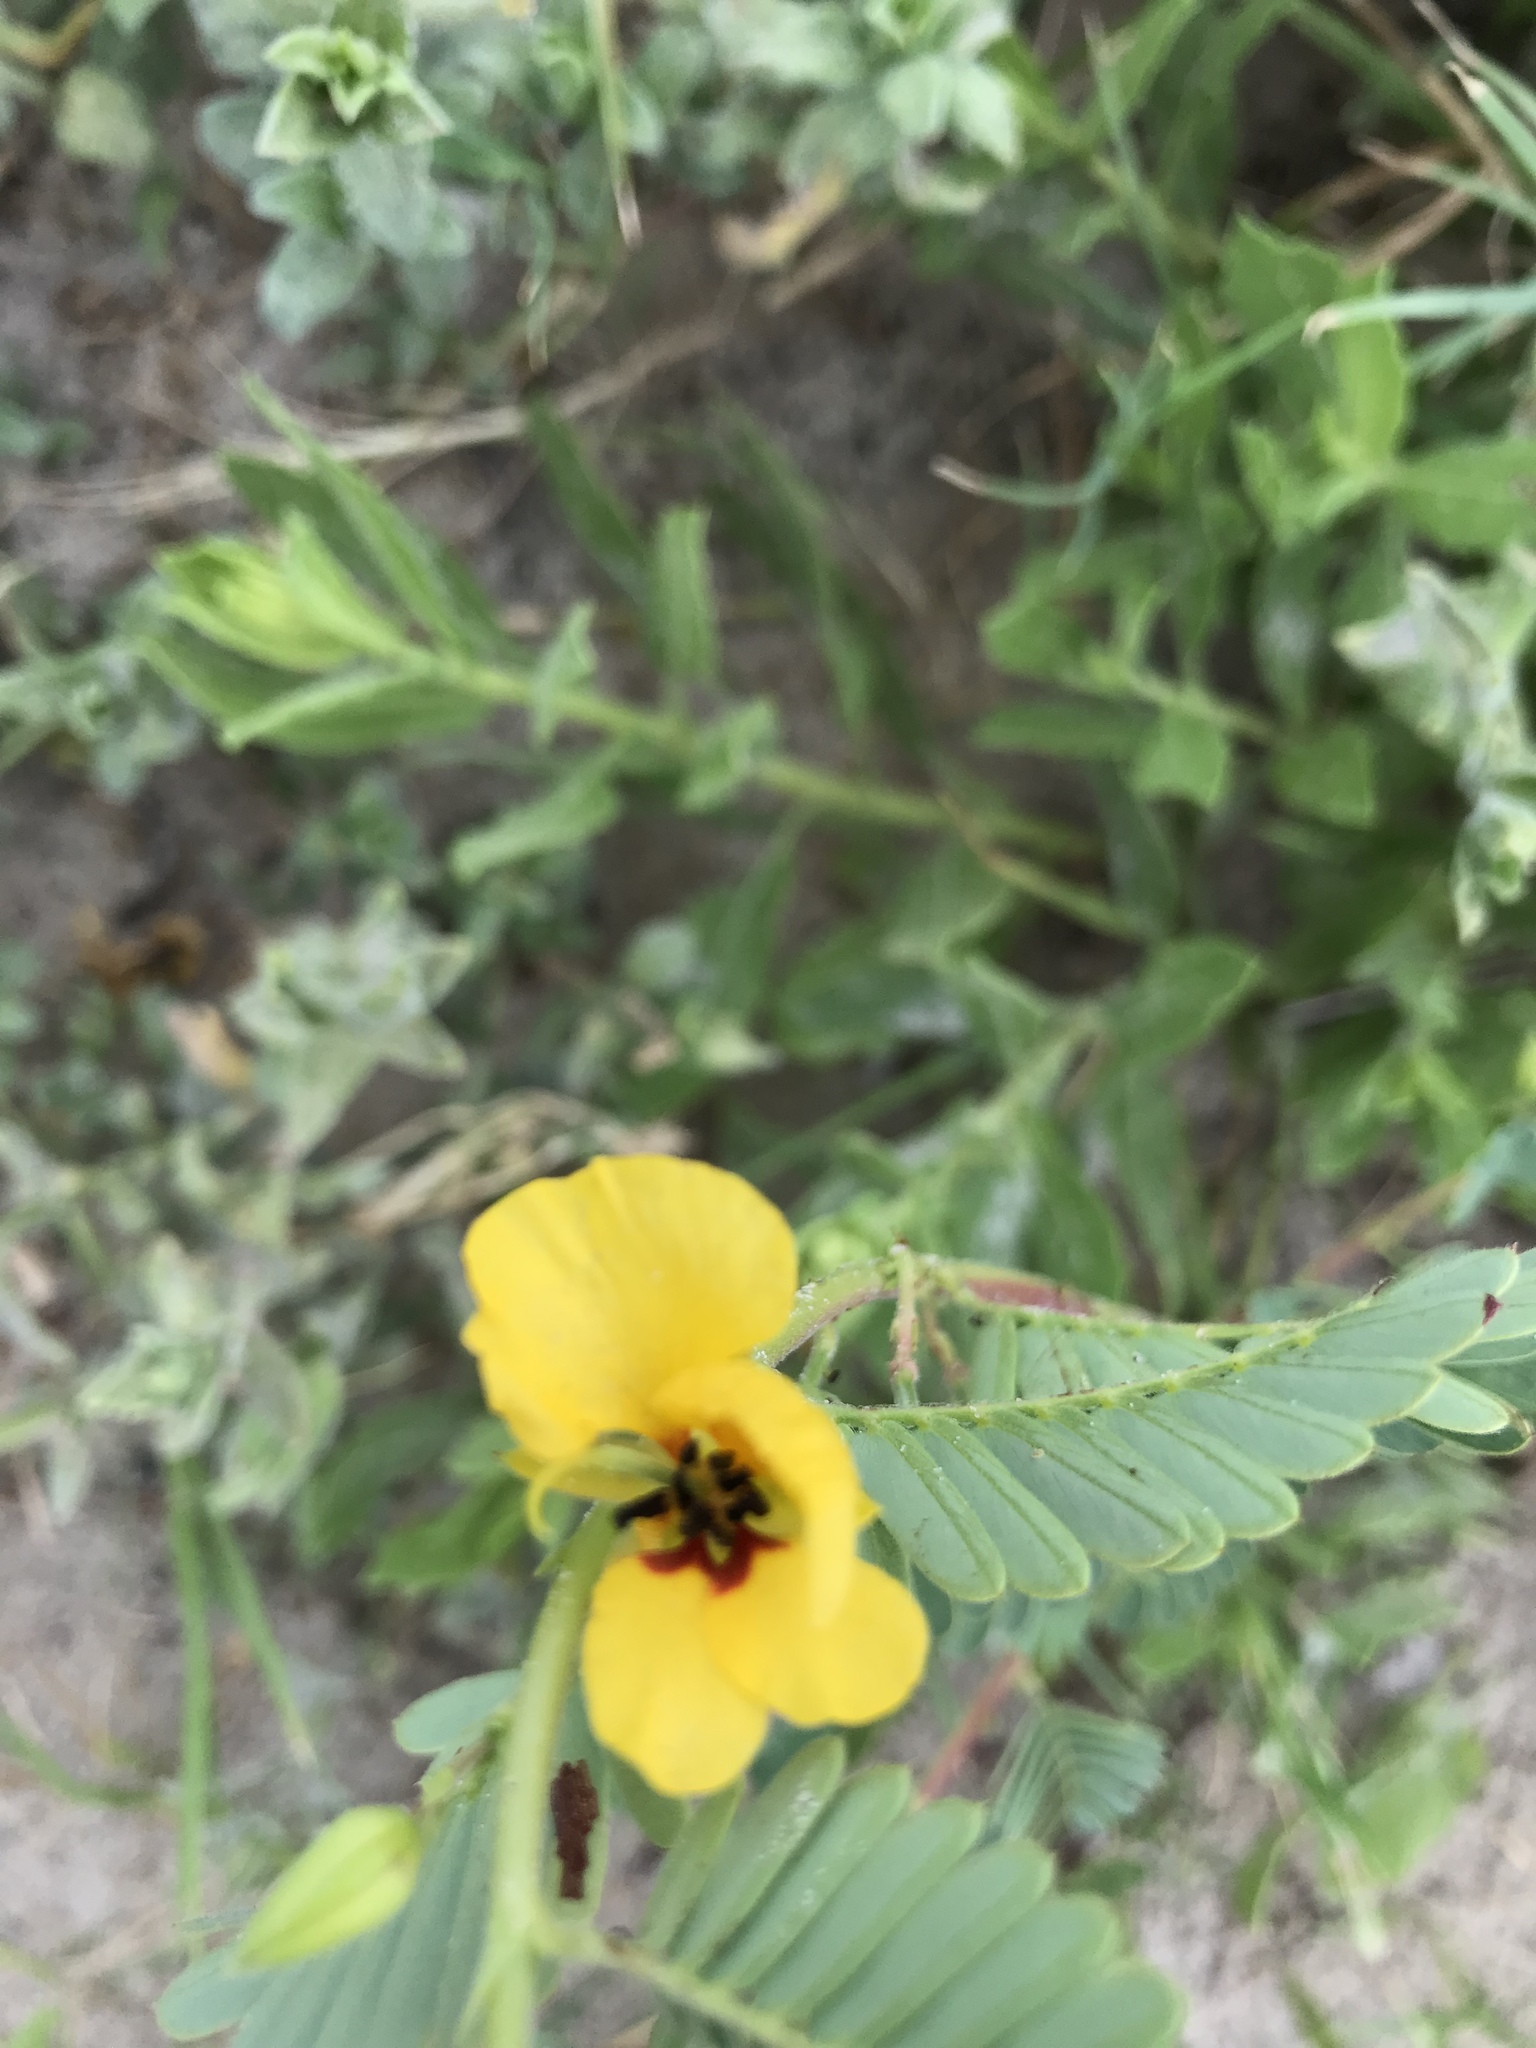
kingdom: Plantae
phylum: Tracheophyta
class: Magnoliopsida
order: Fabales
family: Fabaceae
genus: Chamaecrista
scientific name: Chamaecrista fasciculata
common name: Golden cassia
